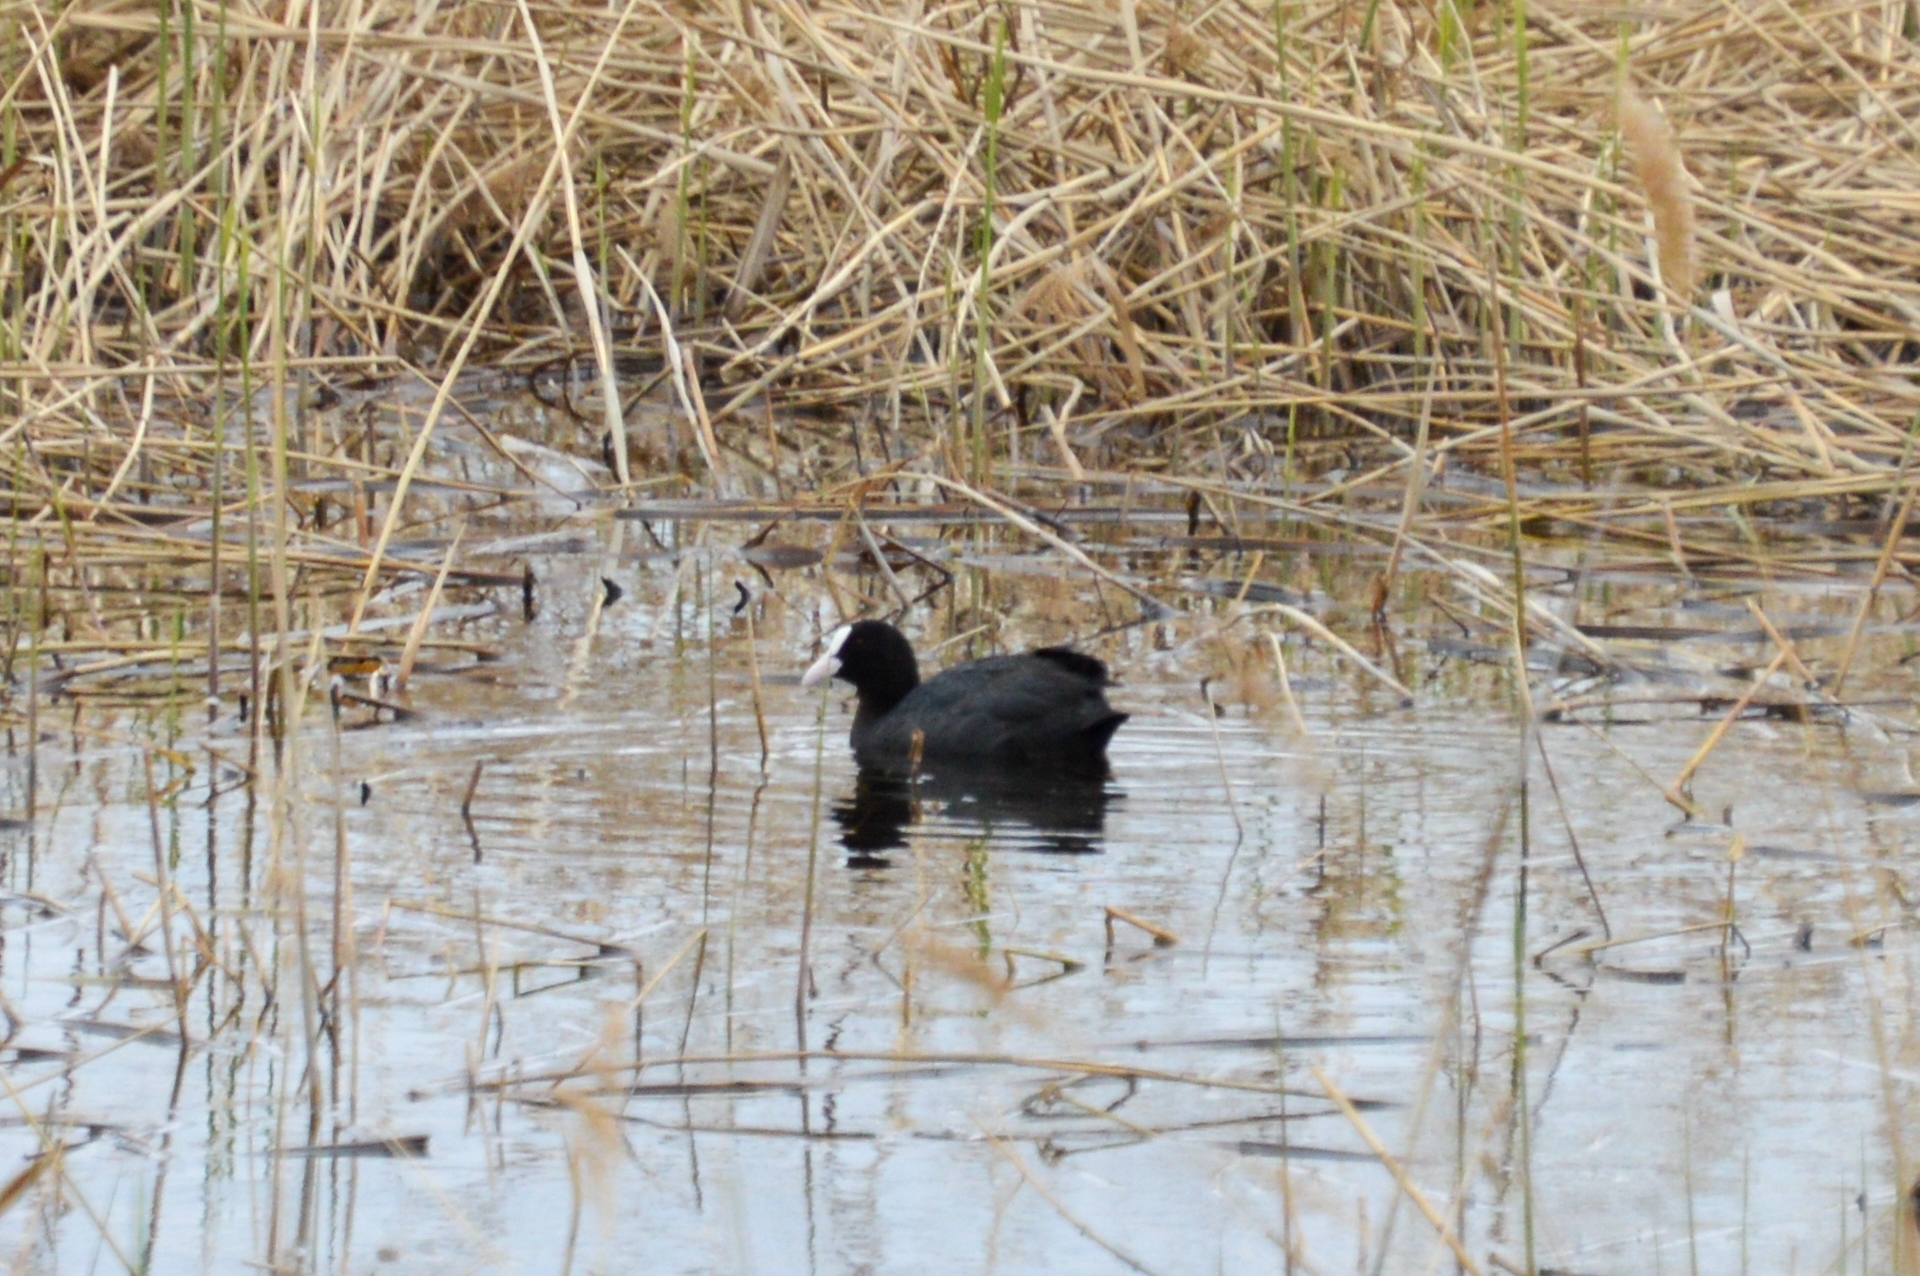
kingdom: Animalia
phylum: Chordata
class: Aves
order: Gruiformes
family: Rallidae
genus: Fulica
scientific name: Fulica atra
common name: Eurasian coot
